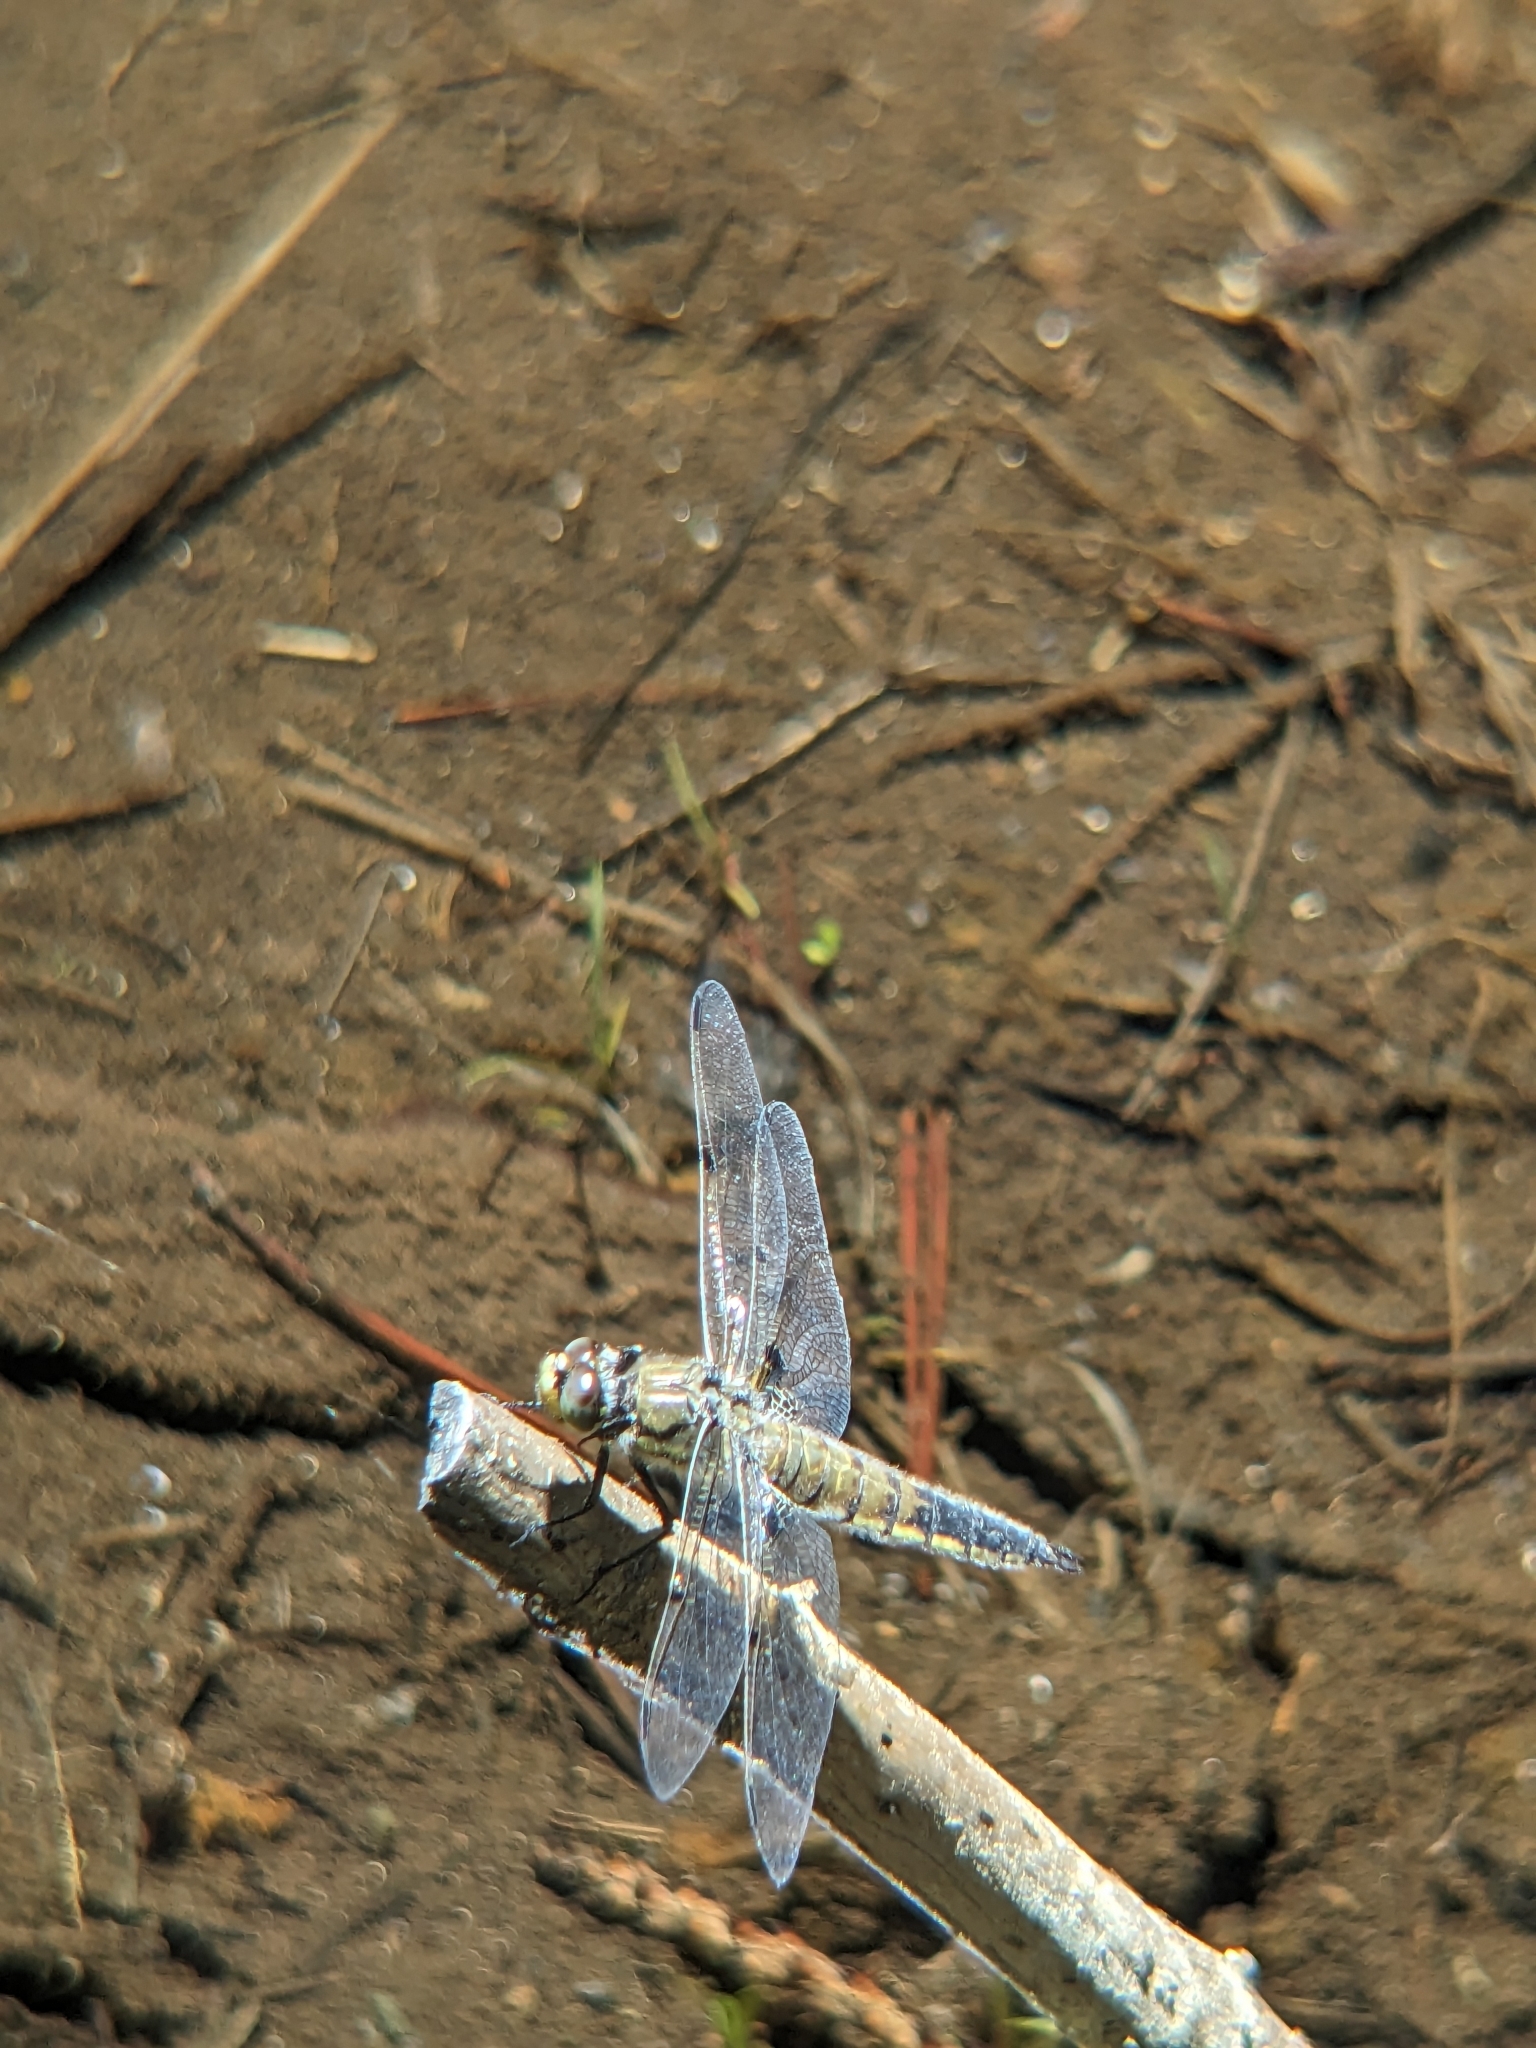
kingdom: Animalia
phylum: Arthropoda
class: Insecta
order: Odonata
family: Libellulidae
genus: Libellula
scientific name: Libellula quadrimaculata
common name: Four-spotted chaser
